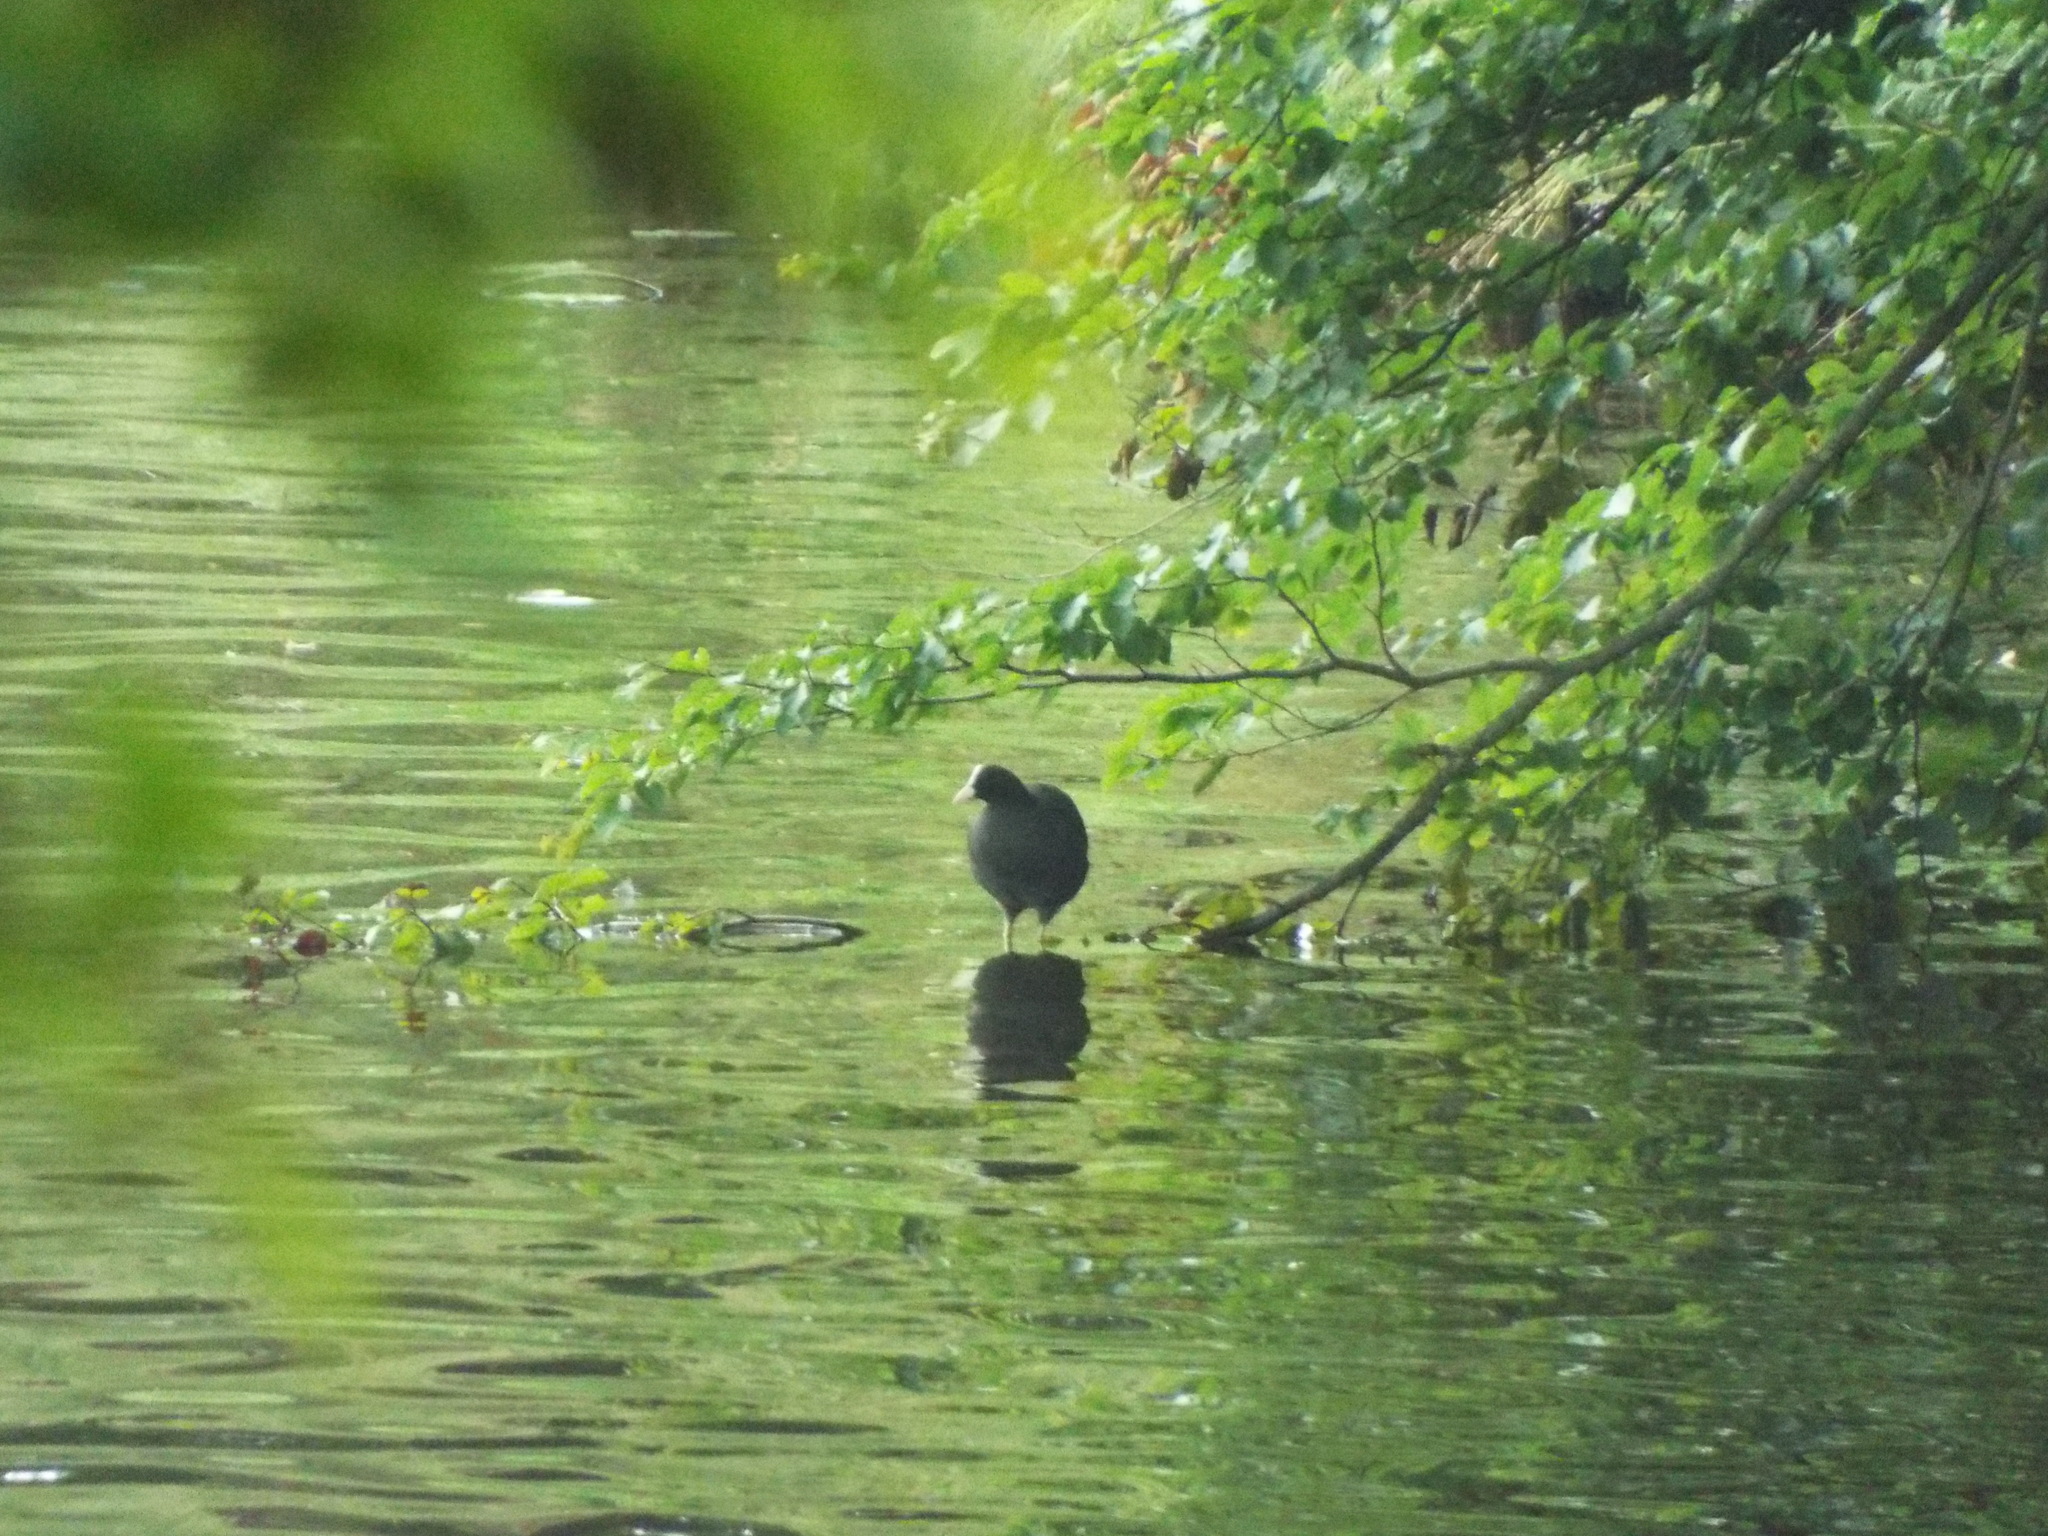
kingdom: Animalia
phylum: Chordata
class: Aves
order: Gruiformes
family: Rallidae
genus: Fulica
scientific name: Fulica atra
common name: Eurasian coot
